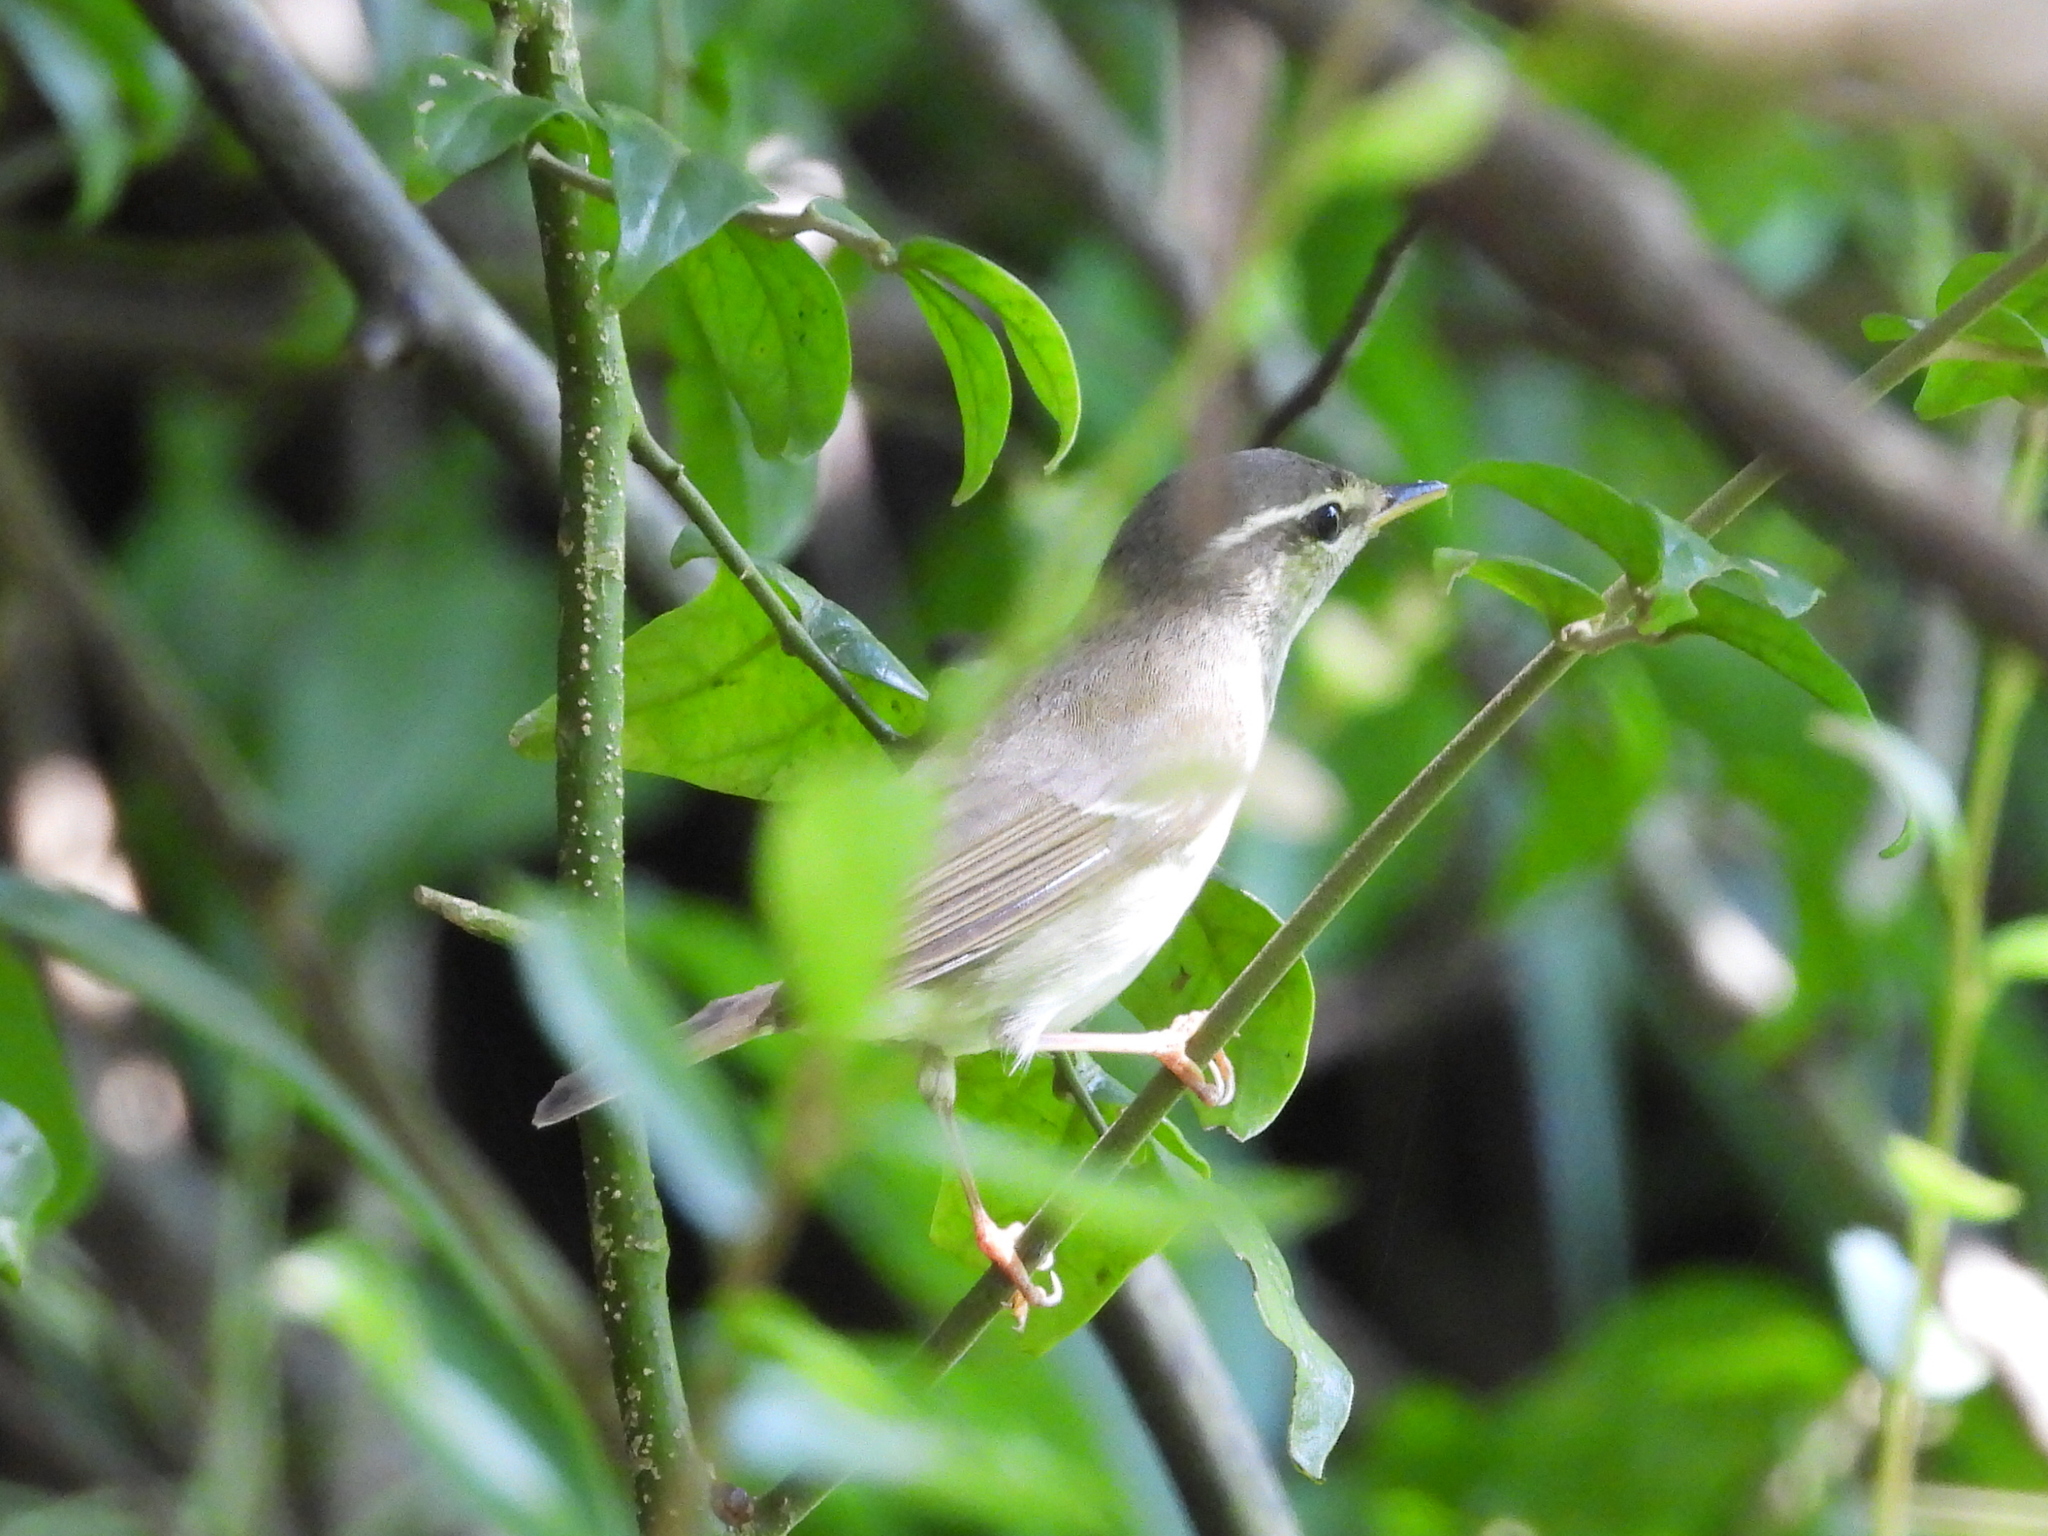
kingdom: Animalia
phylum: Chordata
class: Aves
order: Passeriformes
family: Phylloscopidae
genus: Phylloscopus
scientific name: Phylloscopus borealis
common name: Arctic warbler
